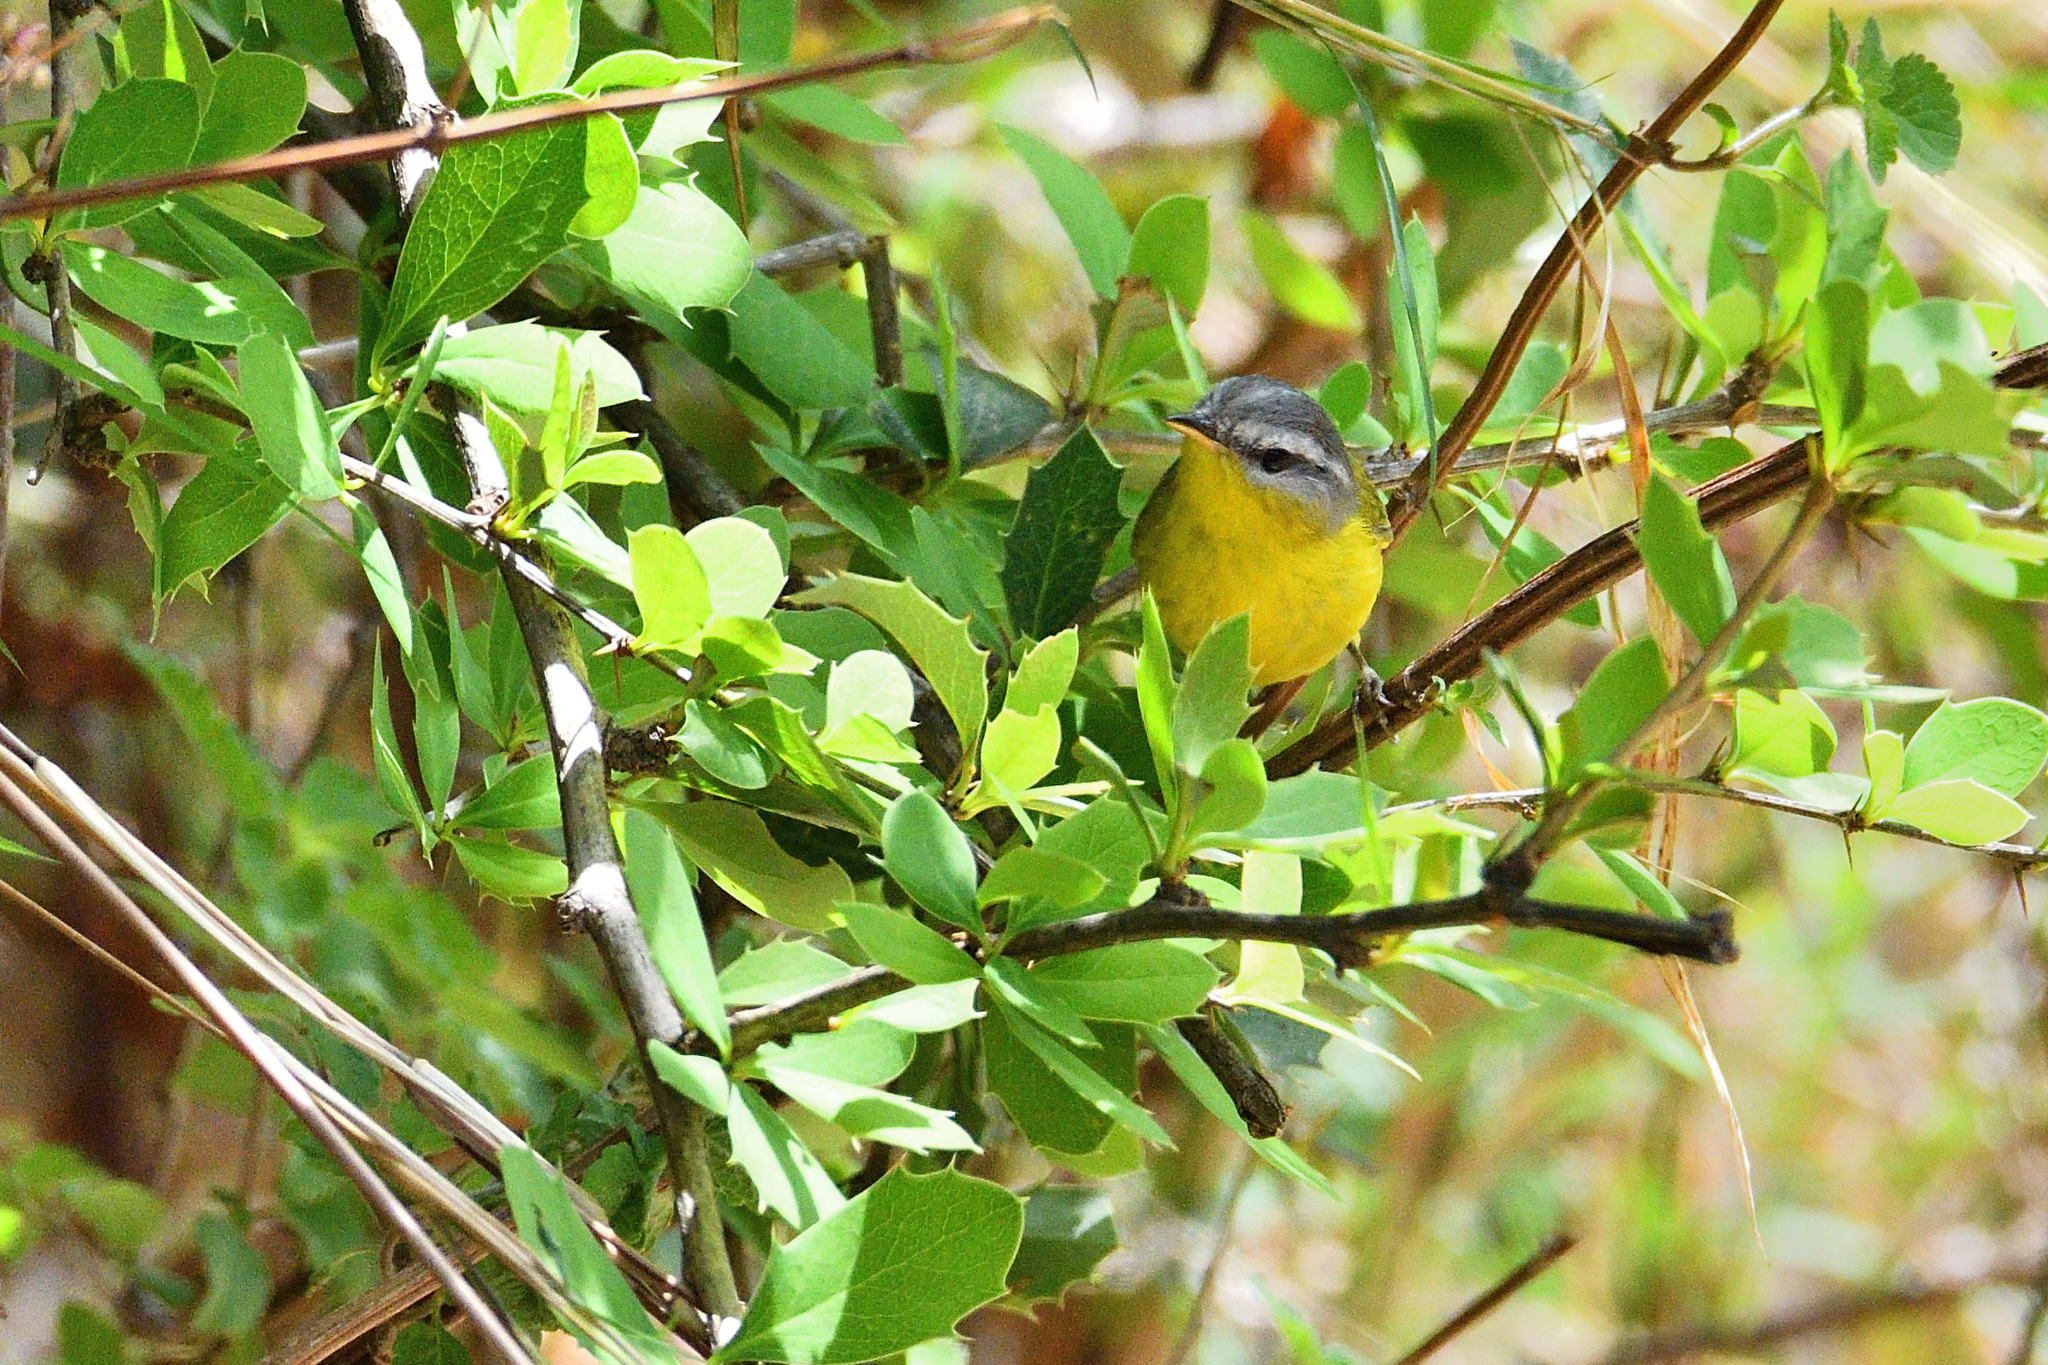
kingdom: Animalia
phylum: Chordata
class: Aves
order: Passeriformes
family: Phylloscopidae
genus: Phylloscopus
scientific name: Phylloscopus xanthoschistos
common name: Grey-hooded warbler
